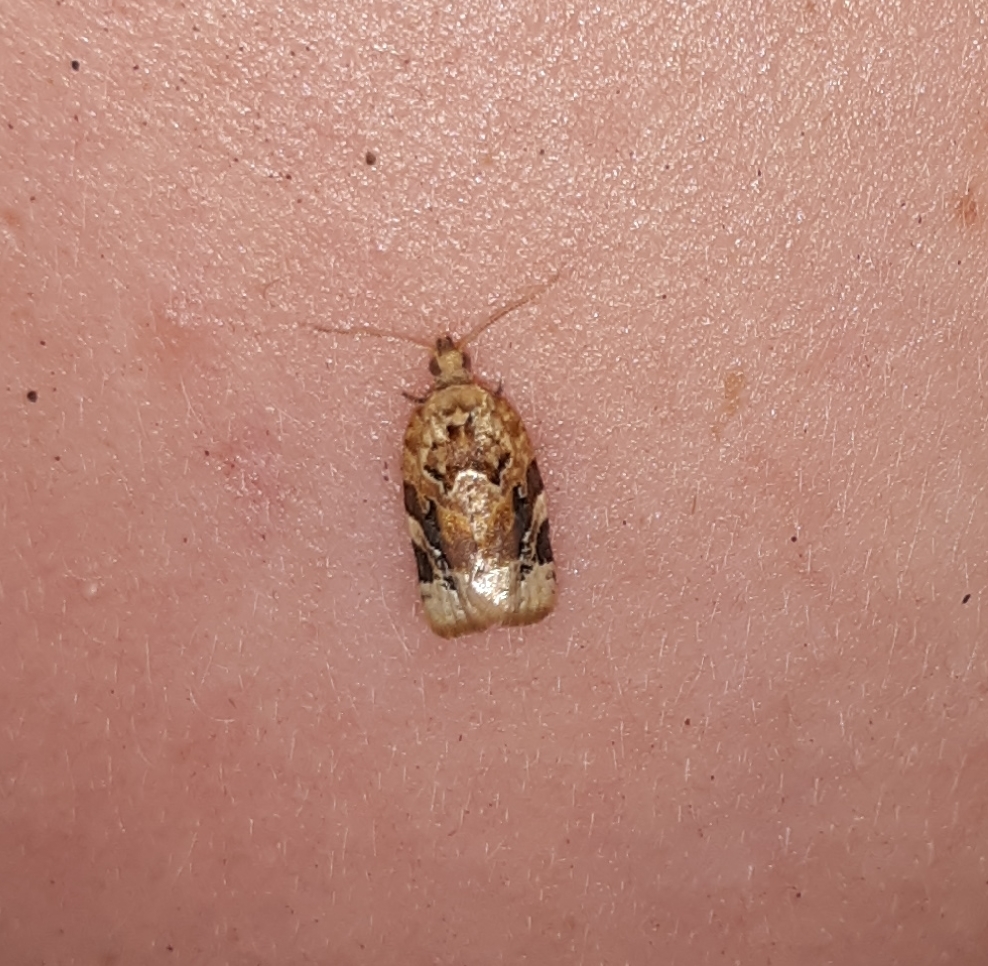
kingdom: Animalia
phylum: Arthropoda
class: Insecta
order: Lepidoptera
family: Tortricidae
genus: Argyrotaenia
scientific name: Argyrotaenia velutinana
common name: Red-banded leafroller moth
